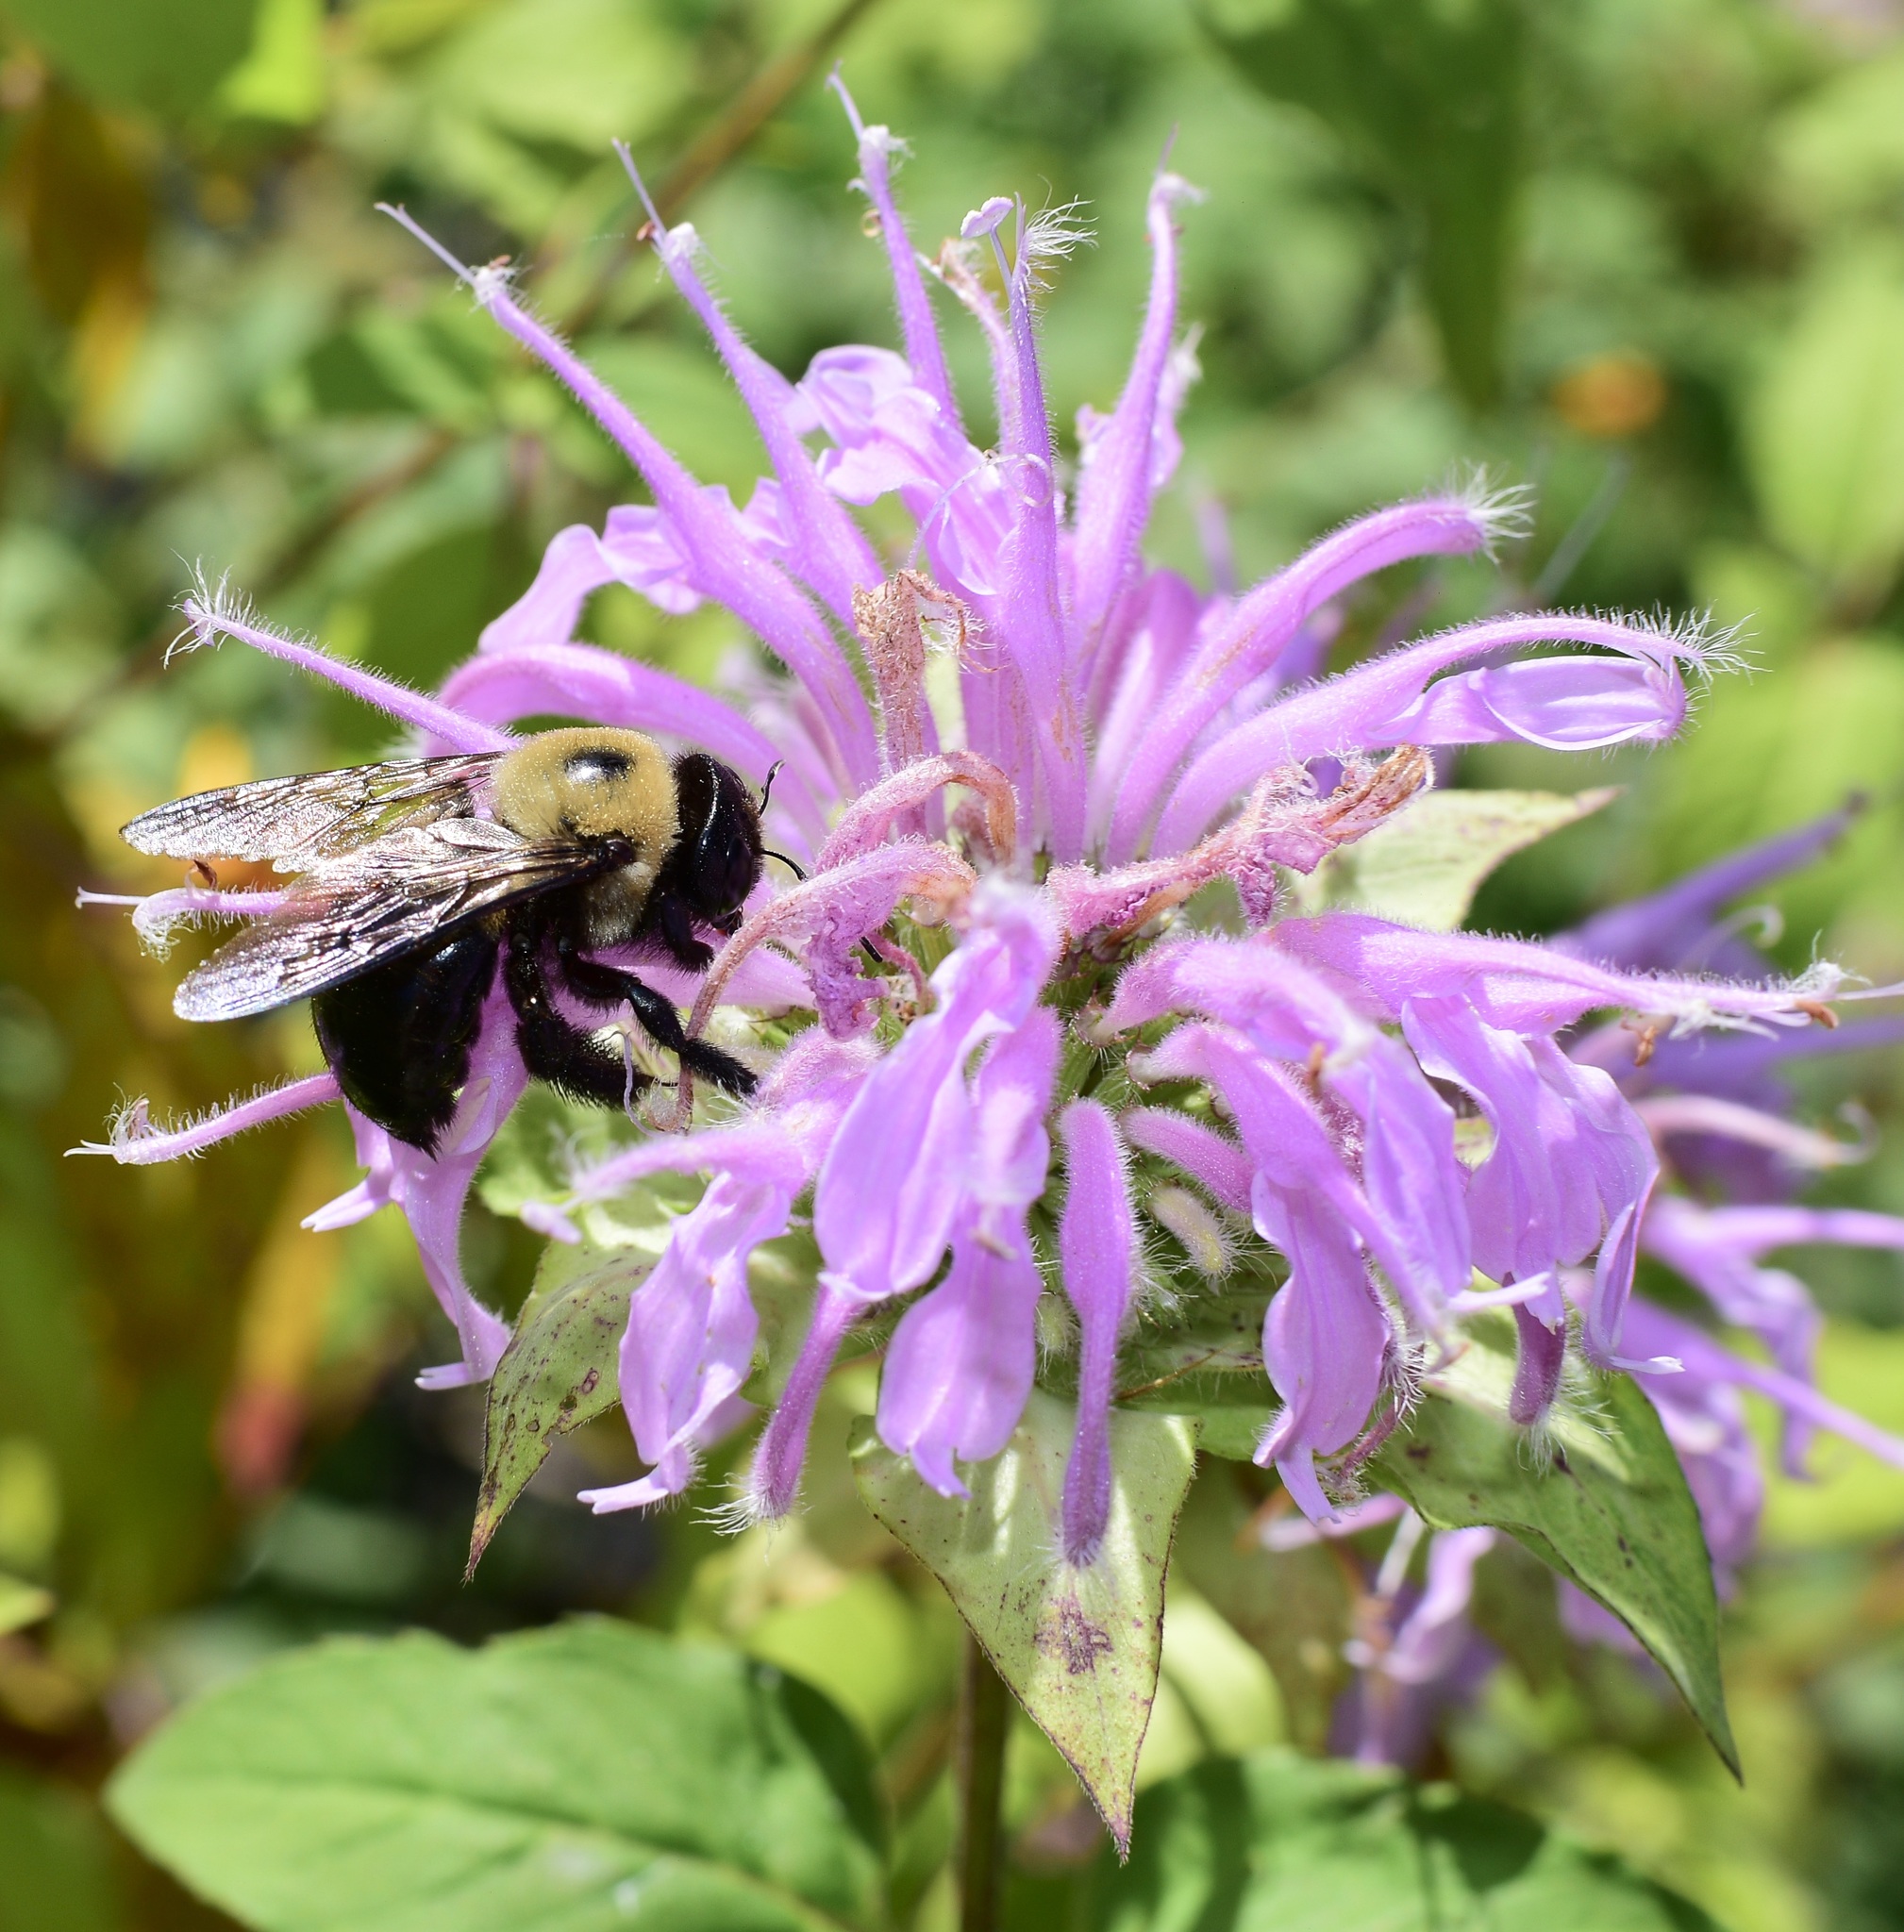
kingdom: Animalia
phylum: Arthropoda
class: Insecta
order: Hymenoptera
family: Apidae
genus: Xylocopa
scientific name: Xylocopa virginica
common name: Carpenter bee
